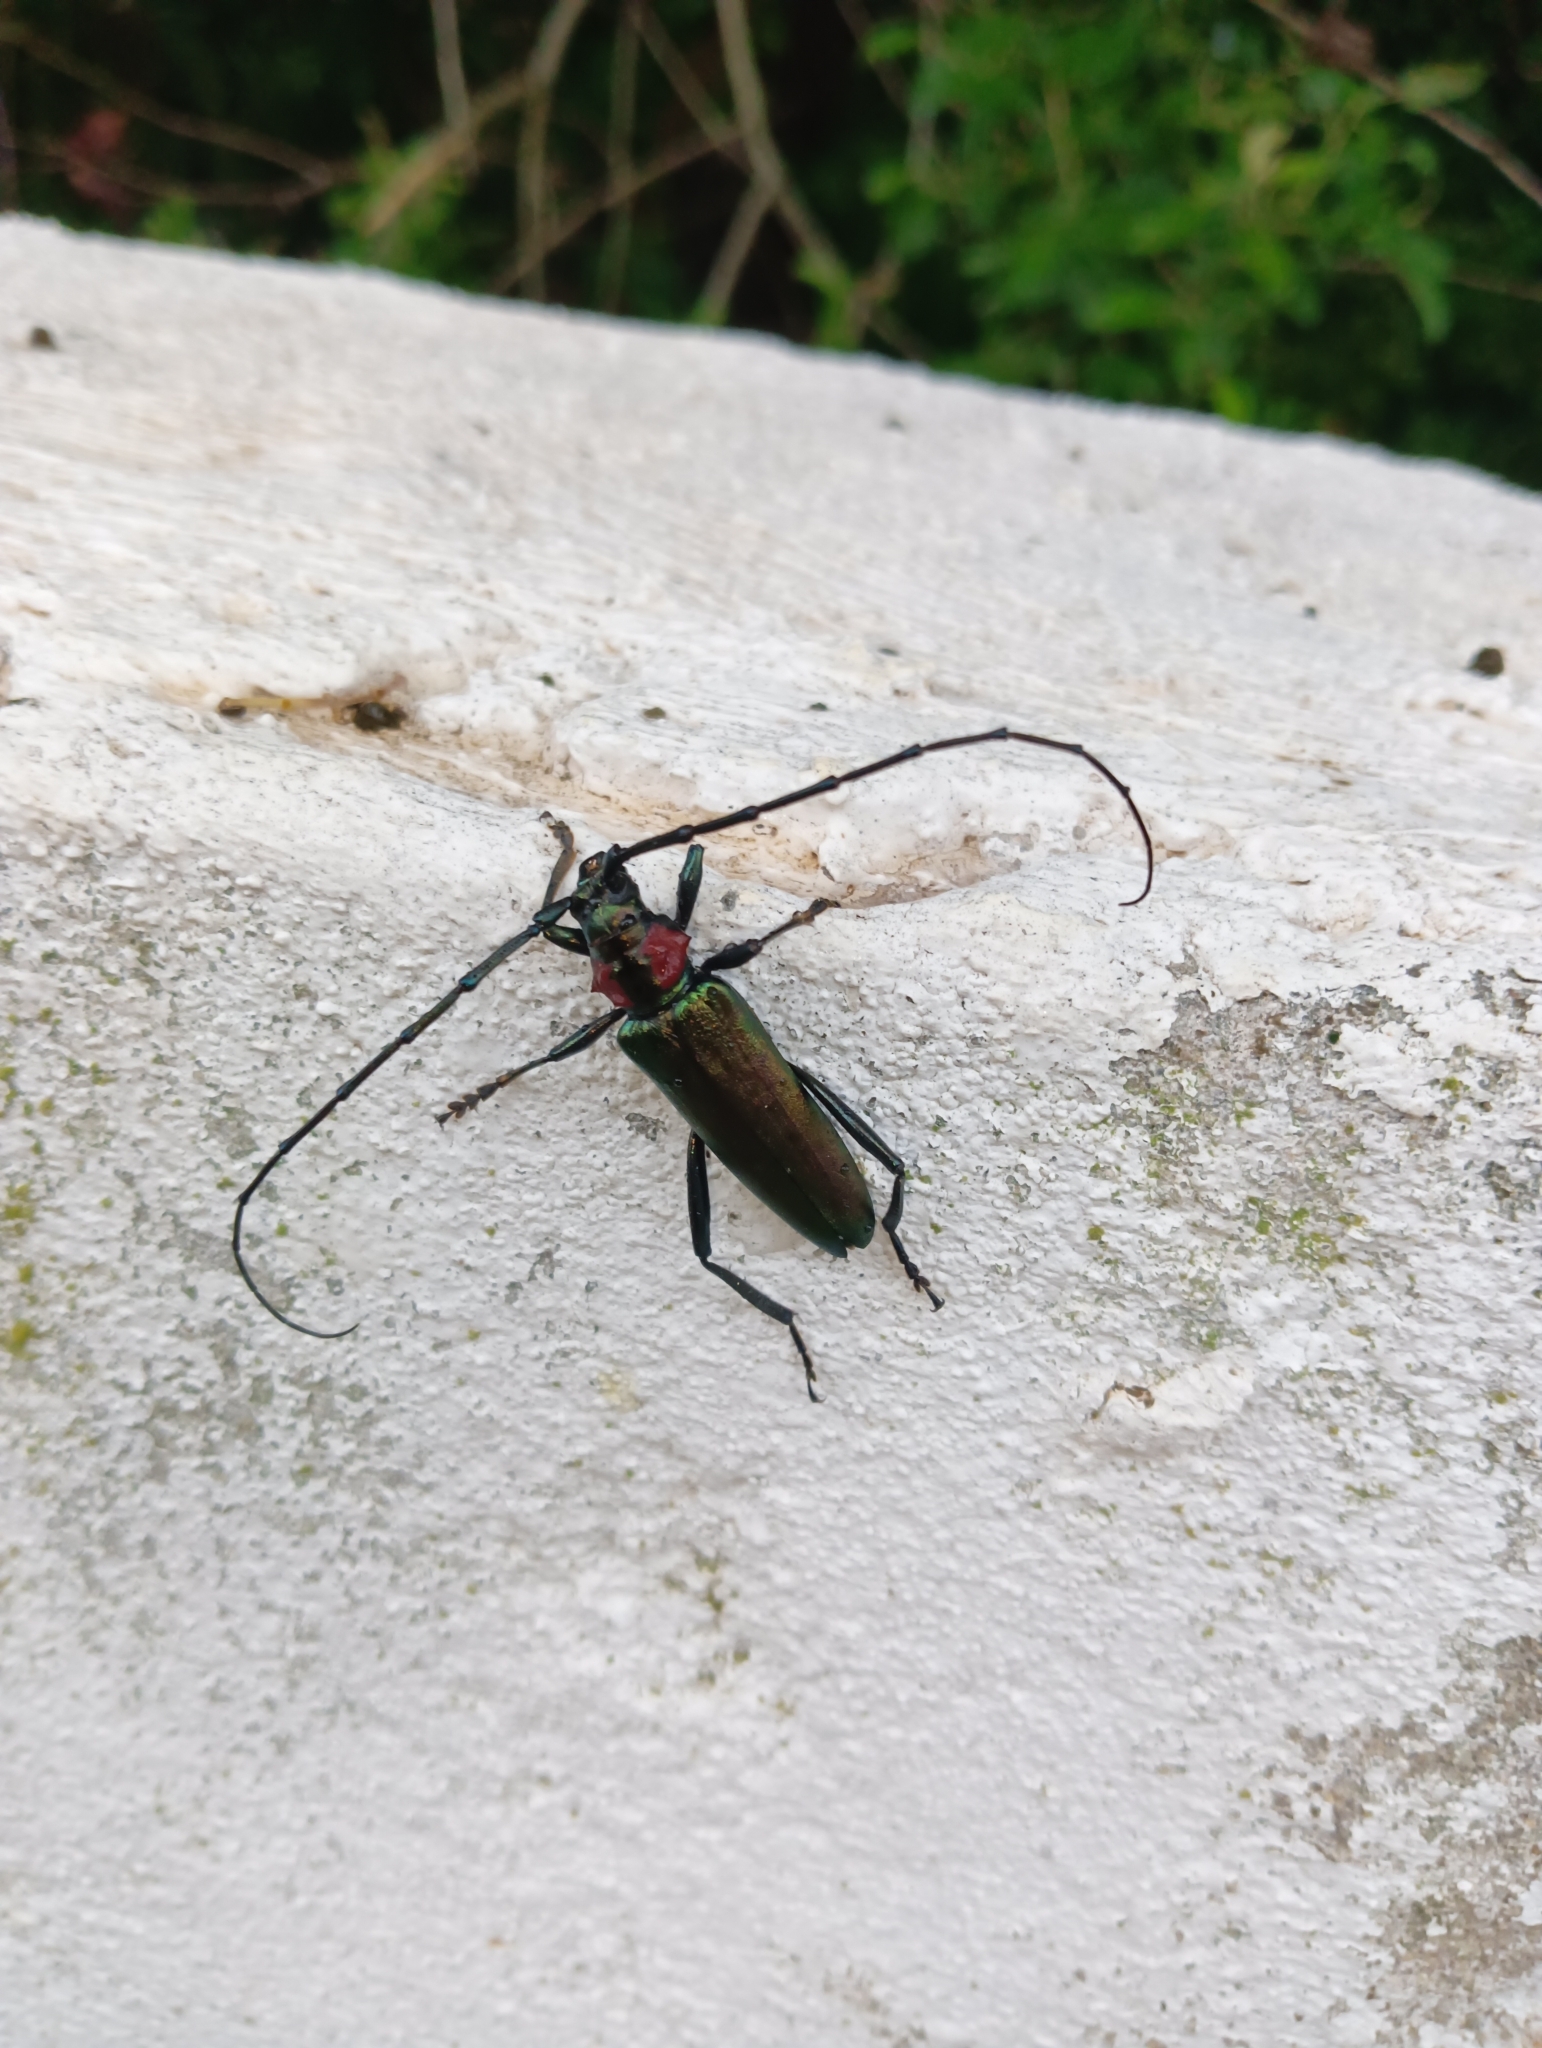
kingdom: Animalia
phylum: Arthropoda
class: Insecta
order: Coleoptera
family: Cerambycidae
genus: Aromia
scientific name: Aromia moschata
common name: Musk beetle
